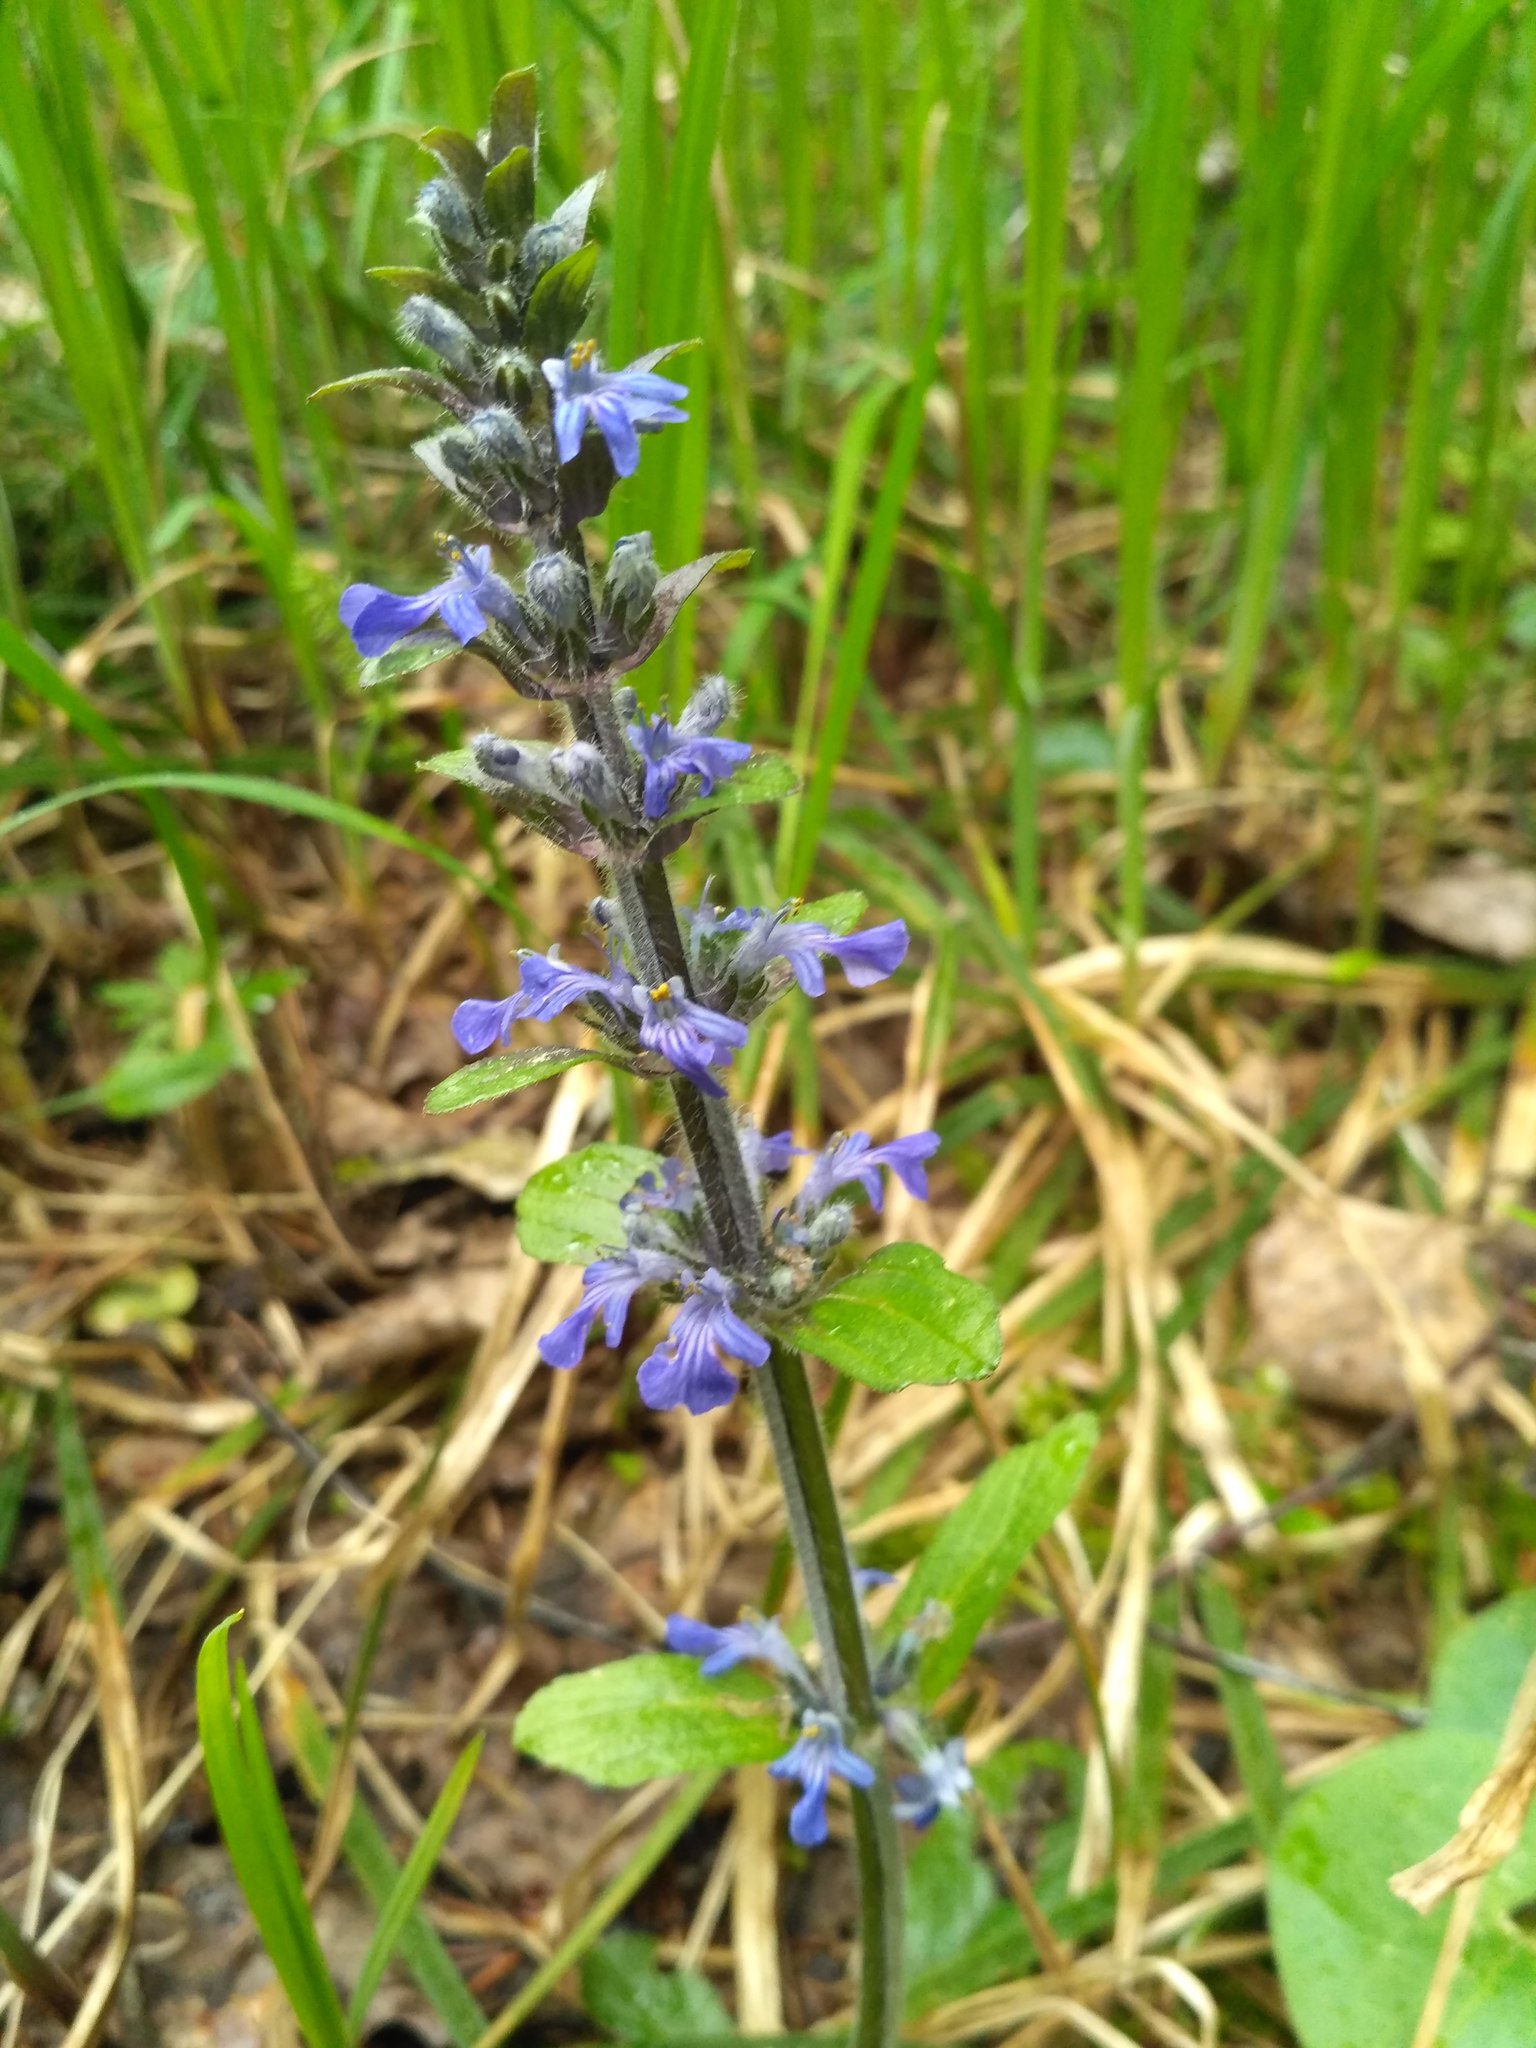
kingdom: Plantae
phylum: Tracheophyta
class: Magnoliopsida
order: Lamiales
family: Lamiaceae
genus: Ajuga
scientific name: Ajuga reptans
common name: Bugle
